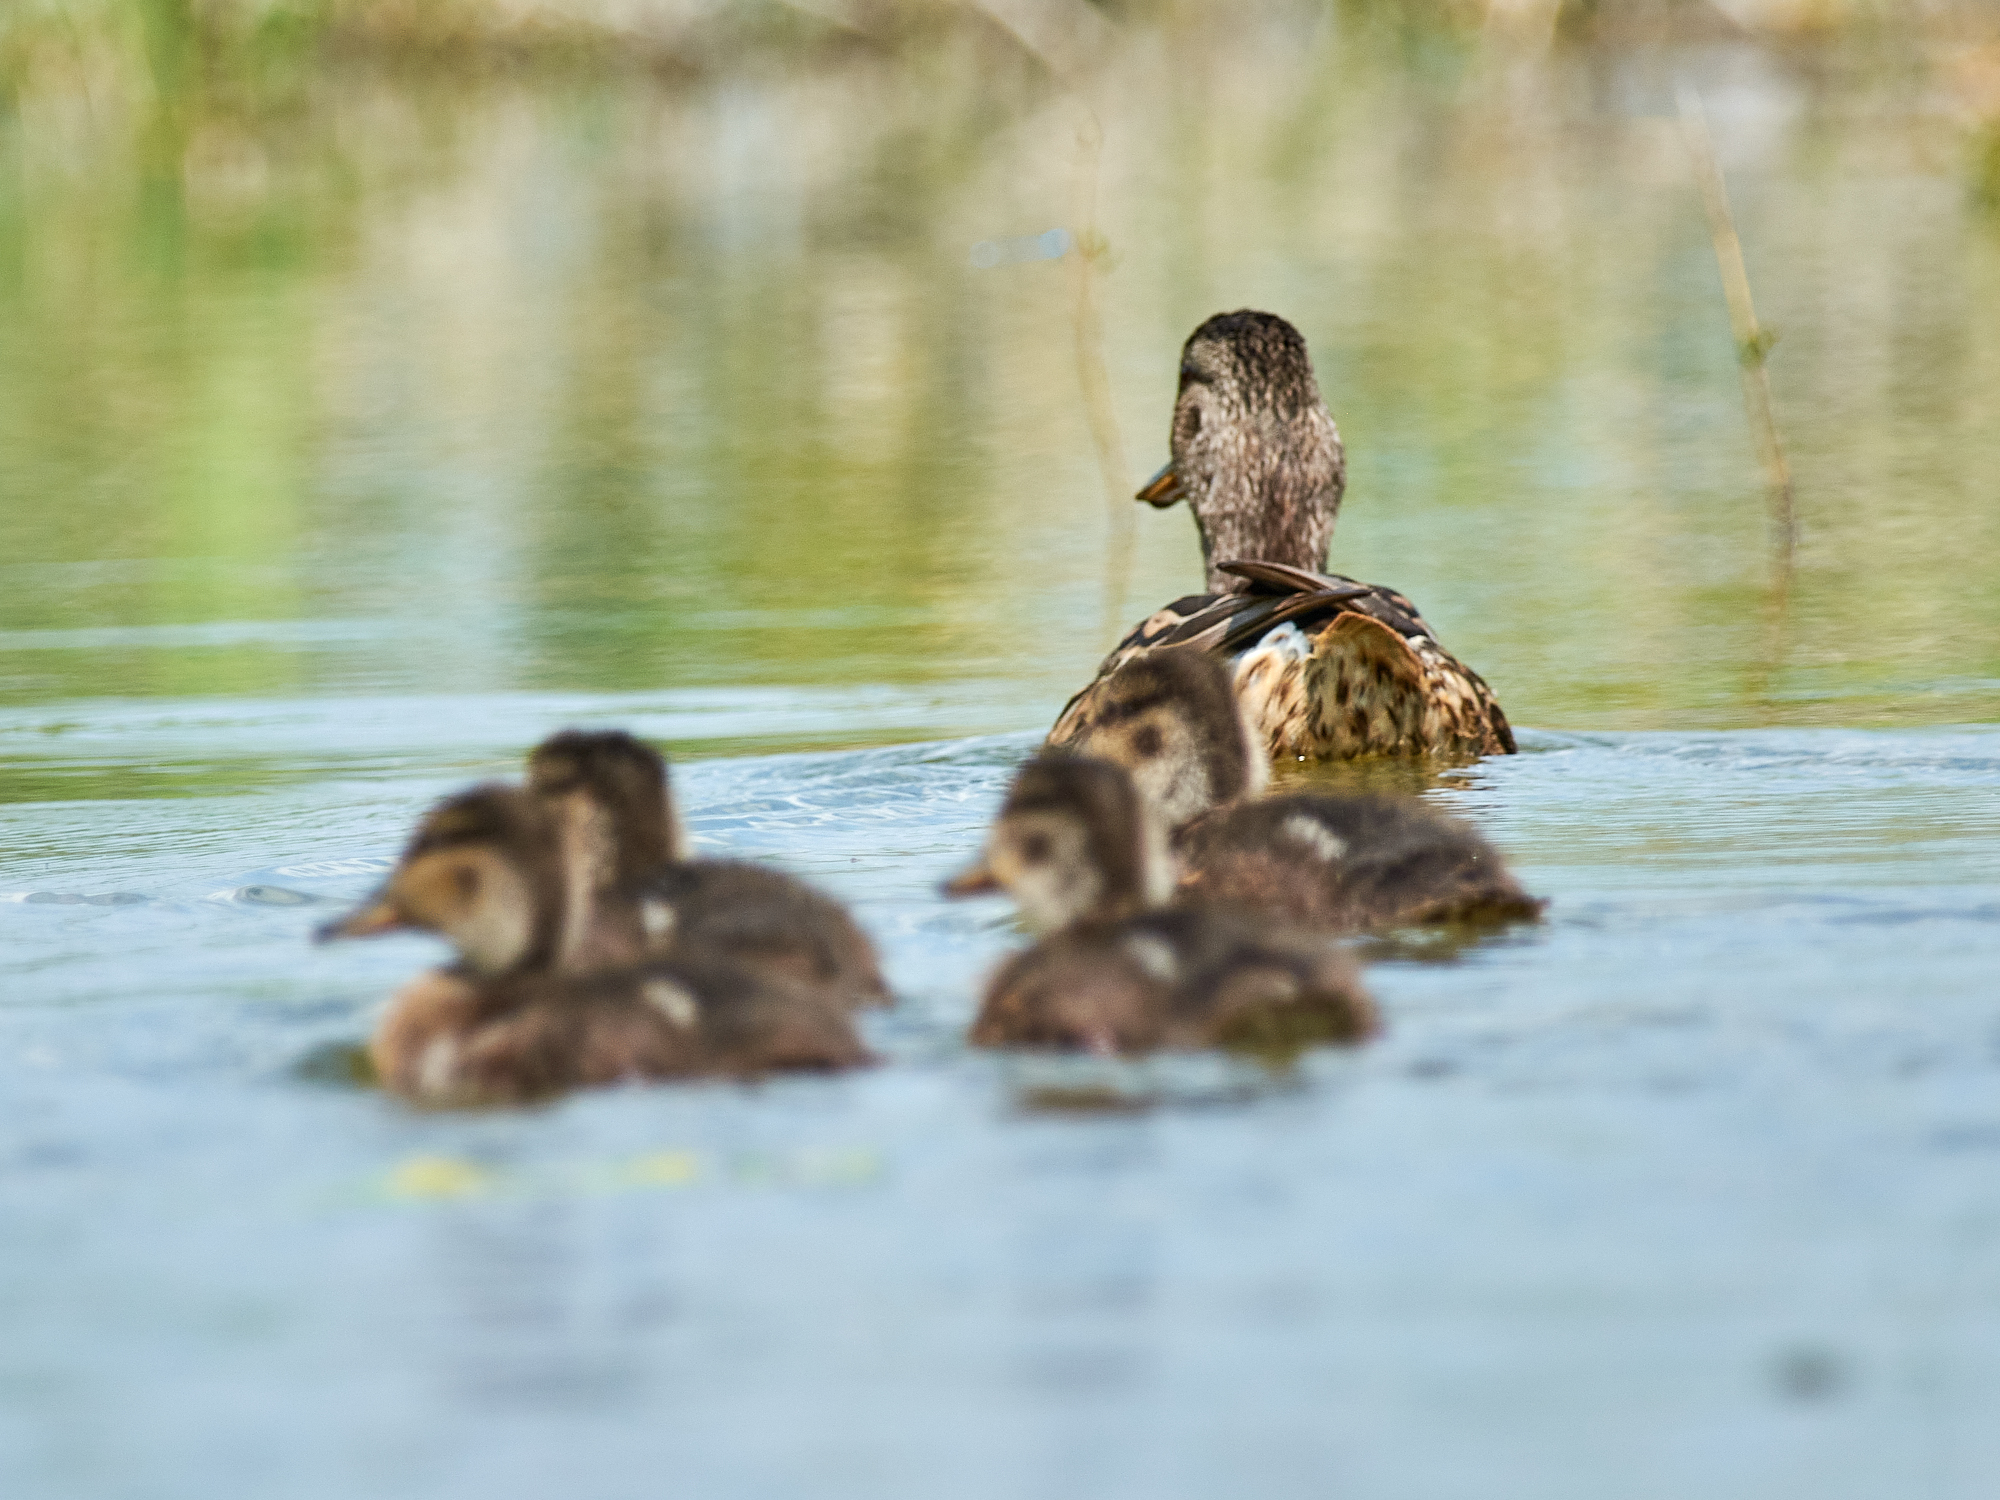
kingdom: Animalia
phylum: Chordata
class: Aves
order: Anseriformes
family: Anatidae
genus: Anas
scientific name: Anas platyrhynchos
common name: Mallard
